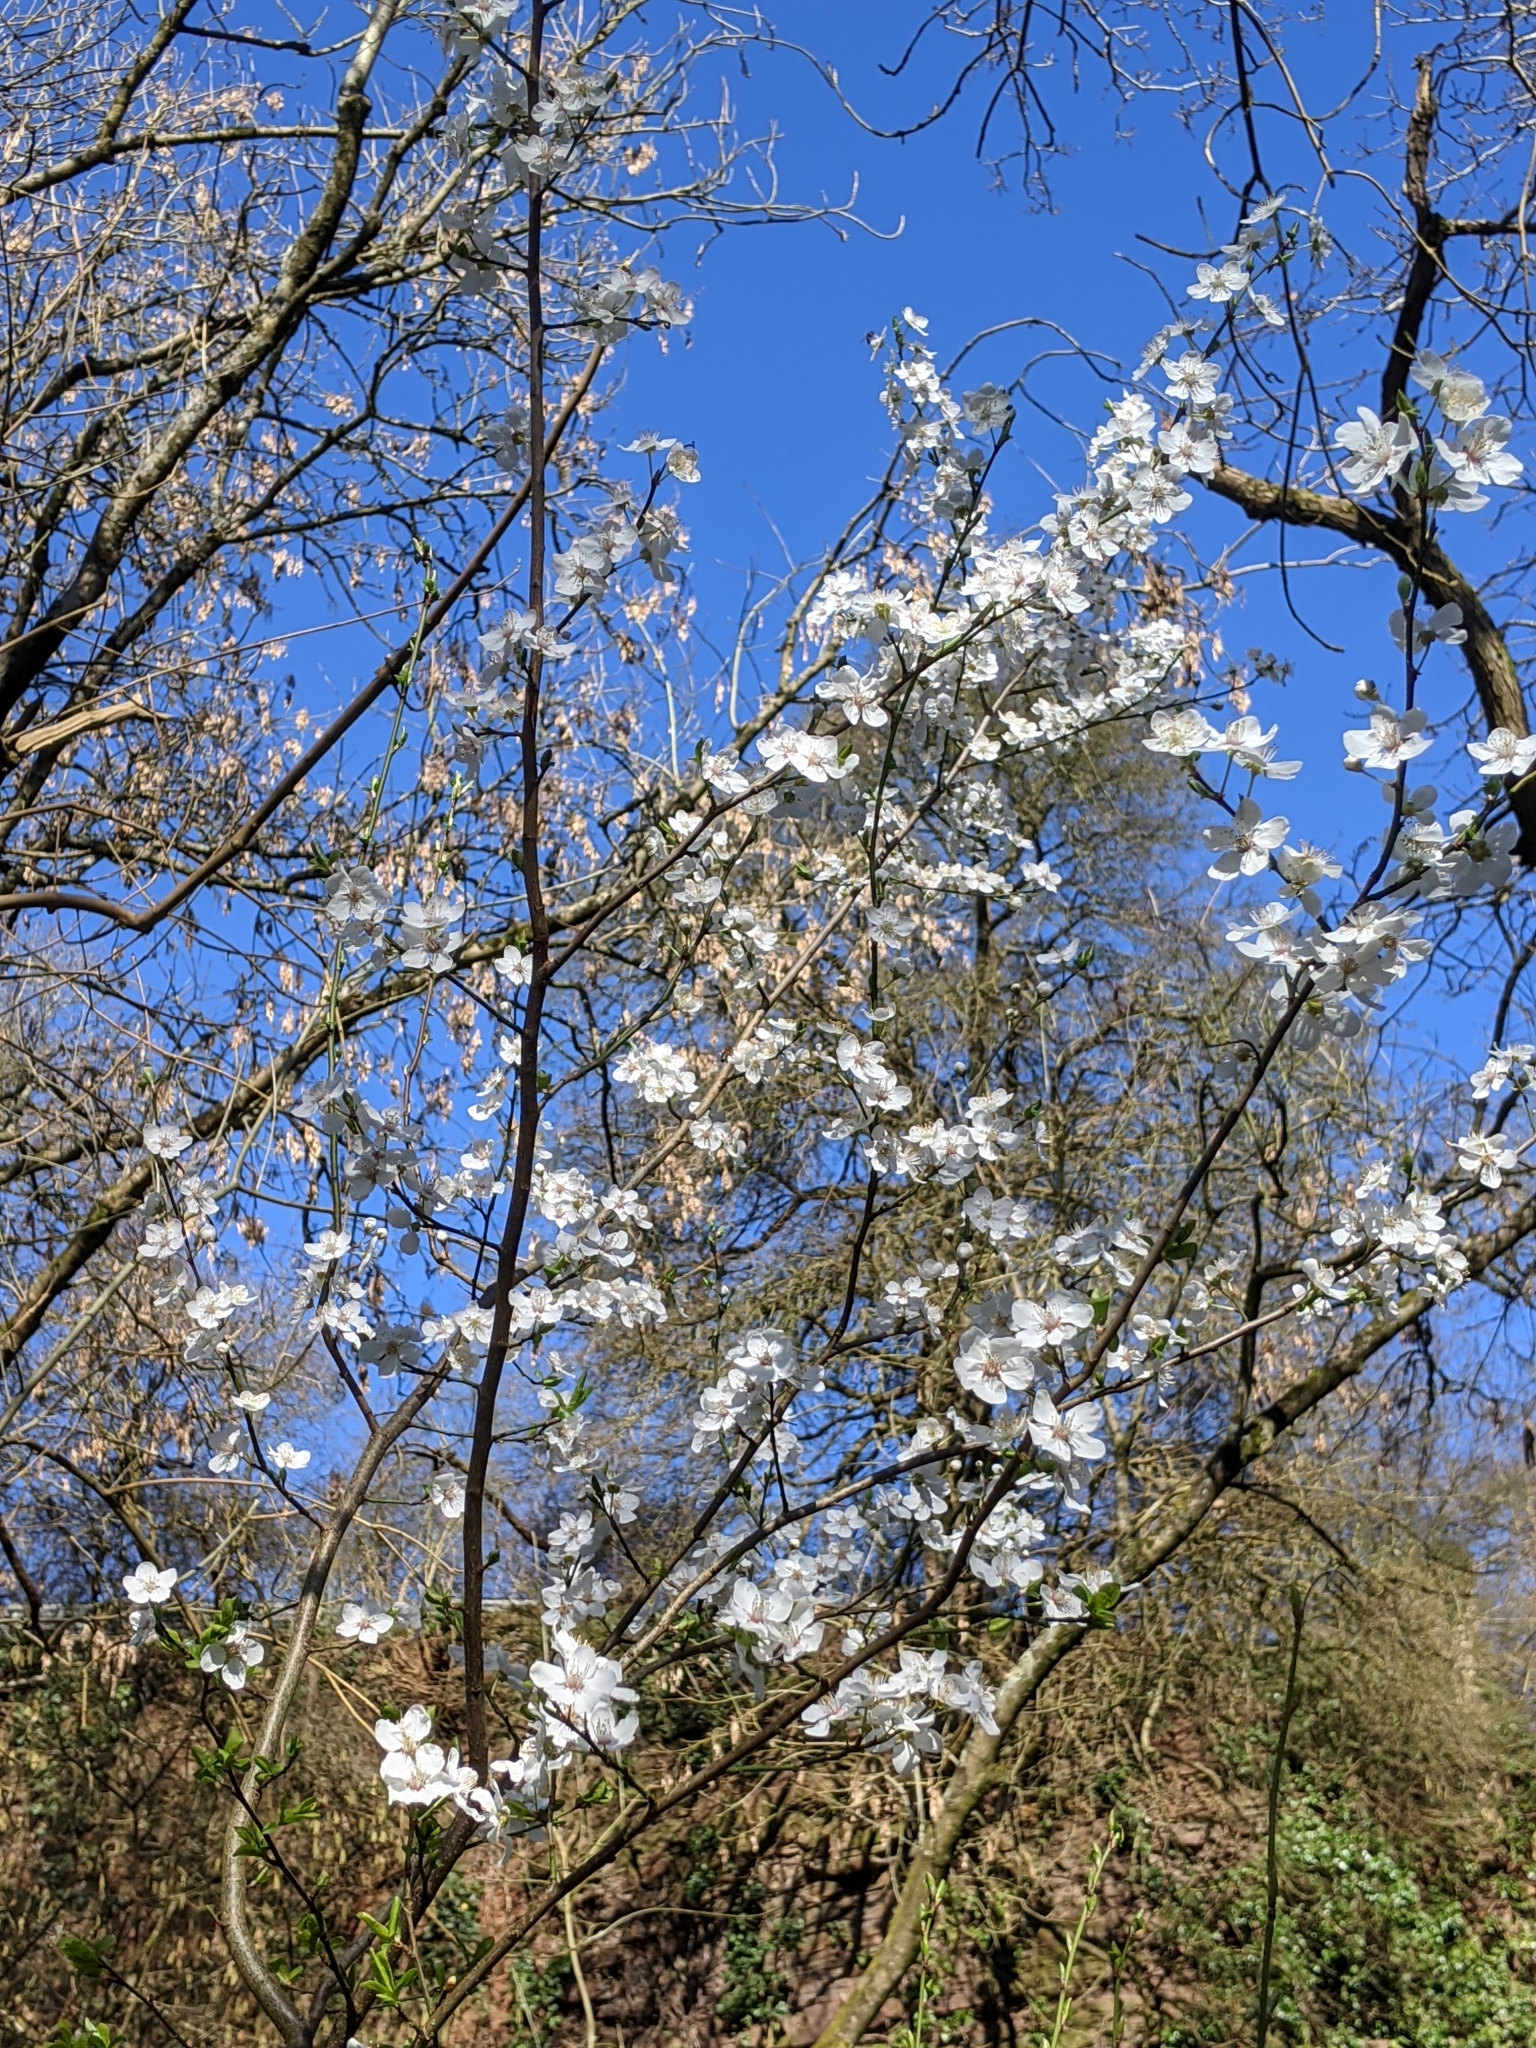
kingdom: Plantae
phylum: Tracheophyta
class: Magnoliopsida
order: Rosales
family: Rosaceae
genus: Prunus
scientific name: Prunus cerasifera
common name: Cherry plum
